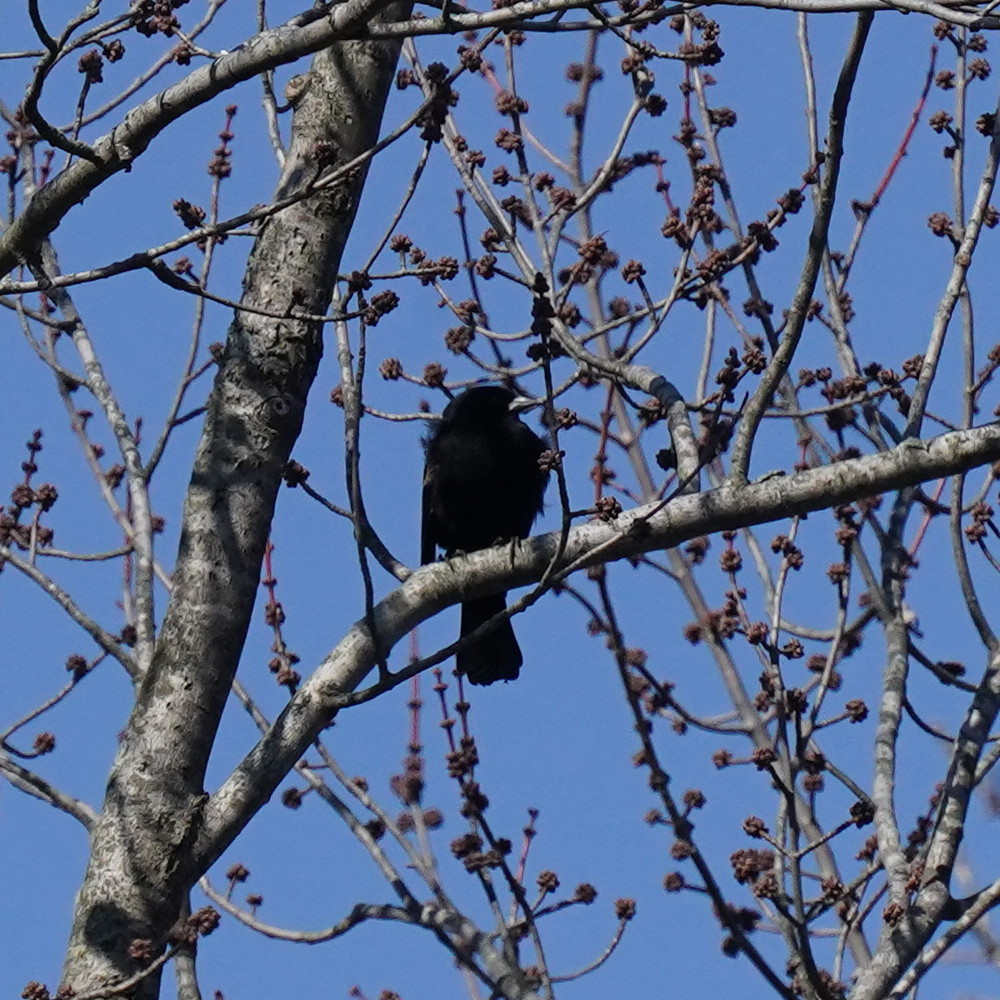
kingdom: Animalia
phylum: Chordata
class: Aves
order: Passeriformes
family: Icteridae
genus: Agelaius
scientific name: Agelaius phoeniceus
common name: Red-winged blackbird
